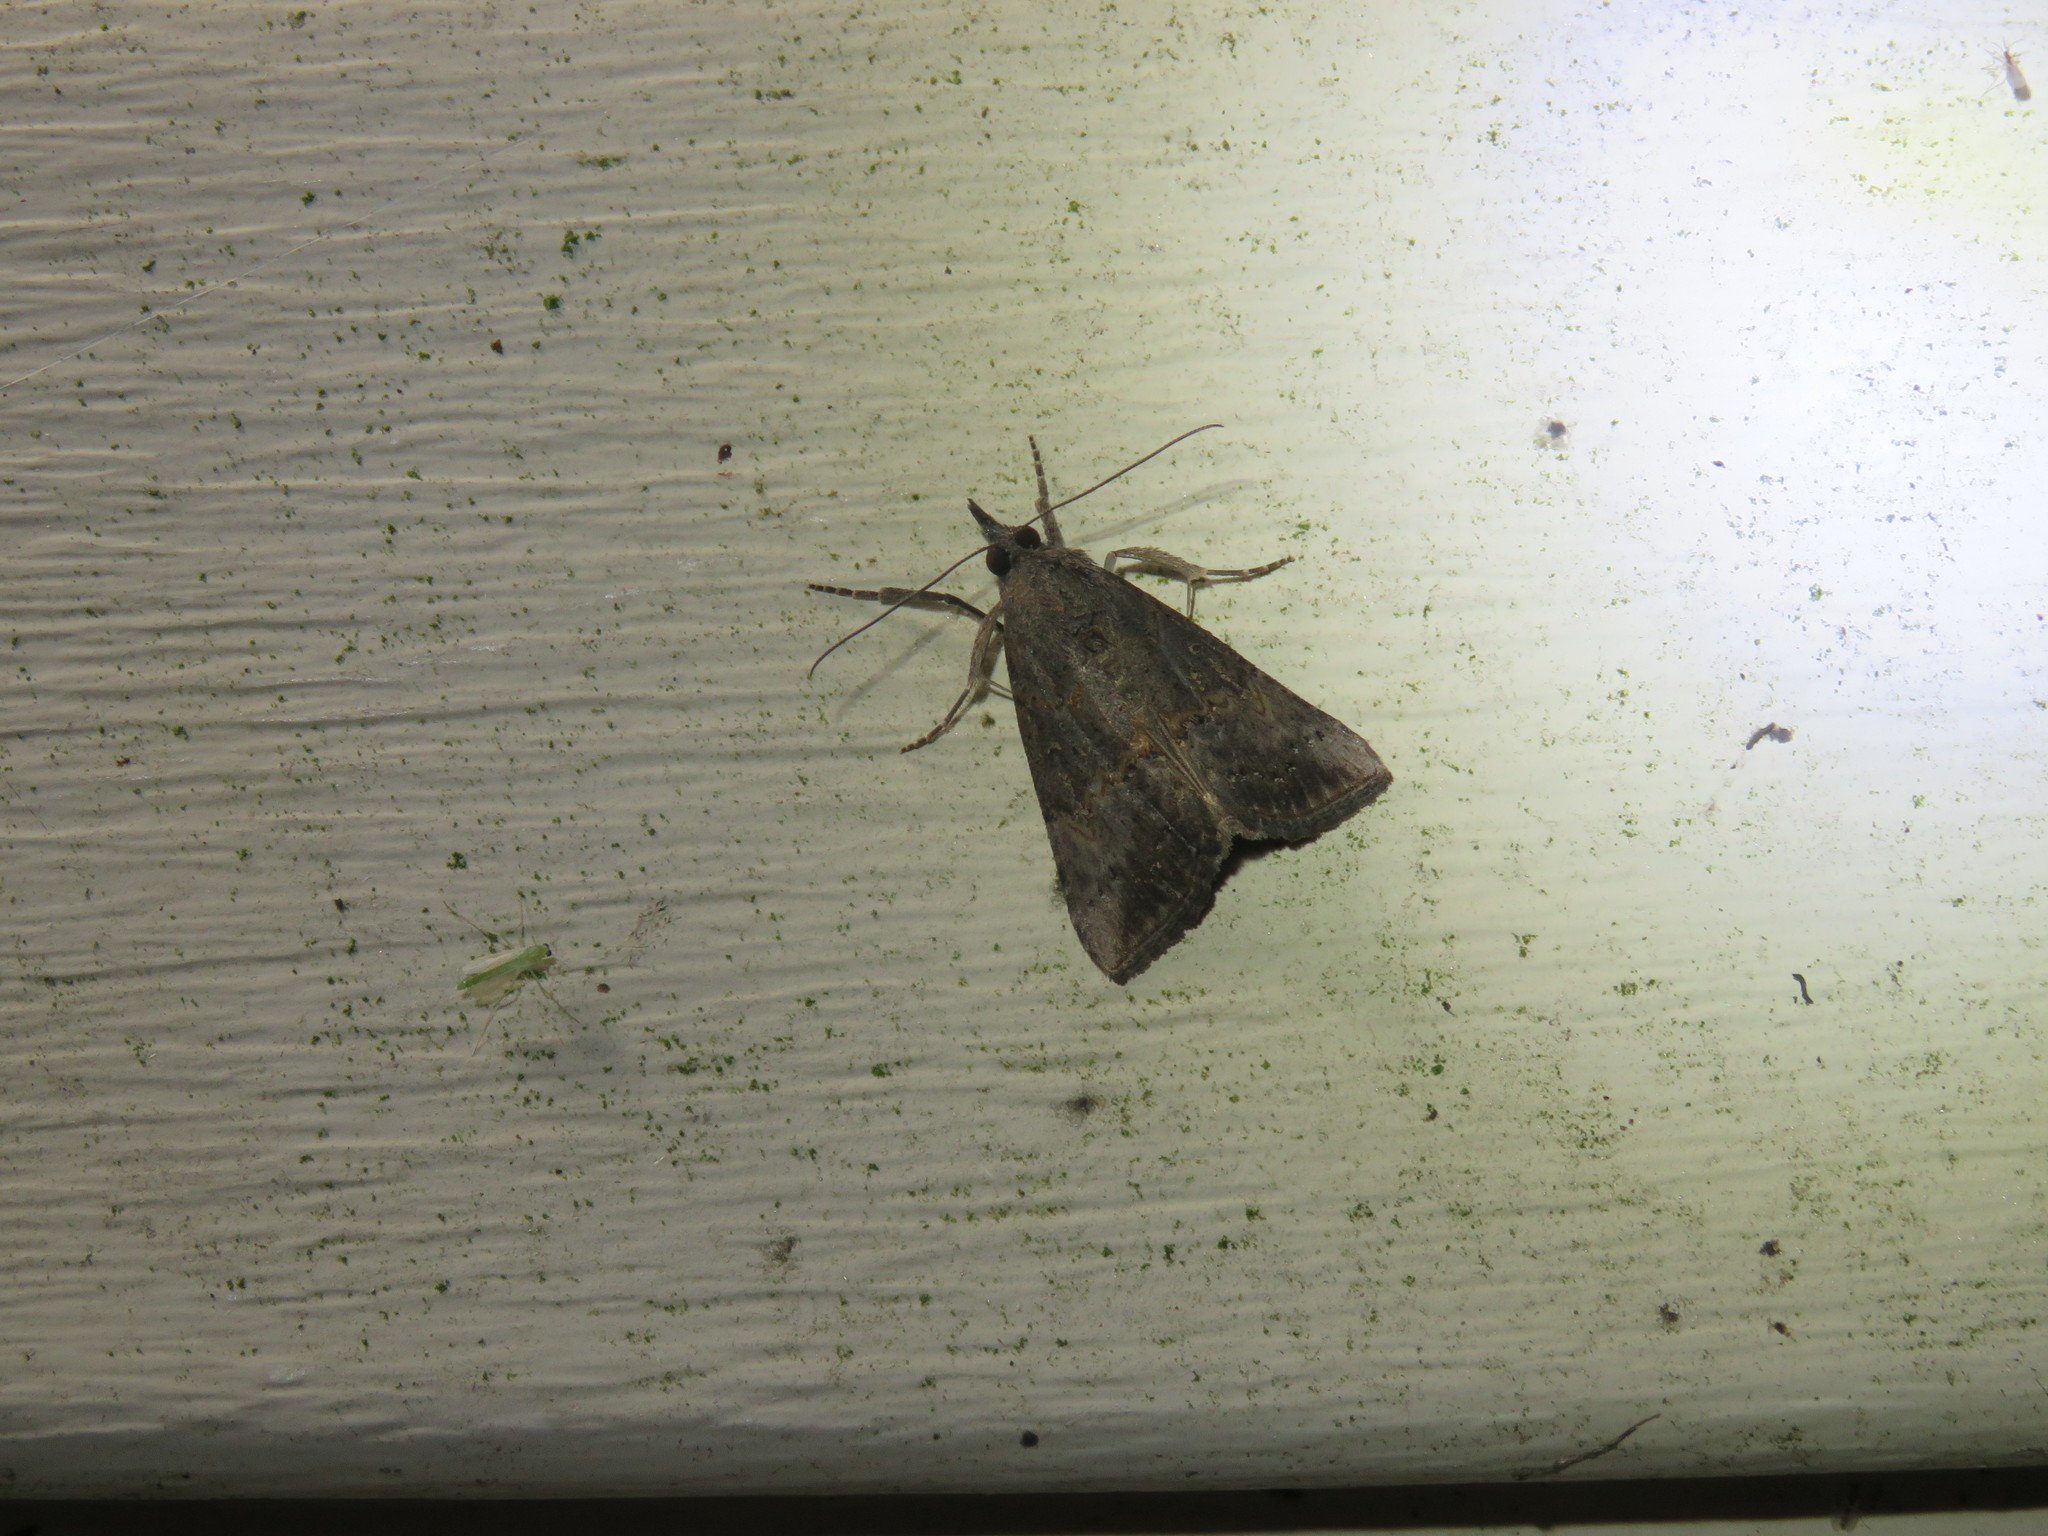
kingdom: Animalia
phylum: Arthropoda
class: Insecta
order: Lepidoptera
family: Erebidae
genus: Hypena
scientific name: Hypena scabra
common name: Green cloverworm
